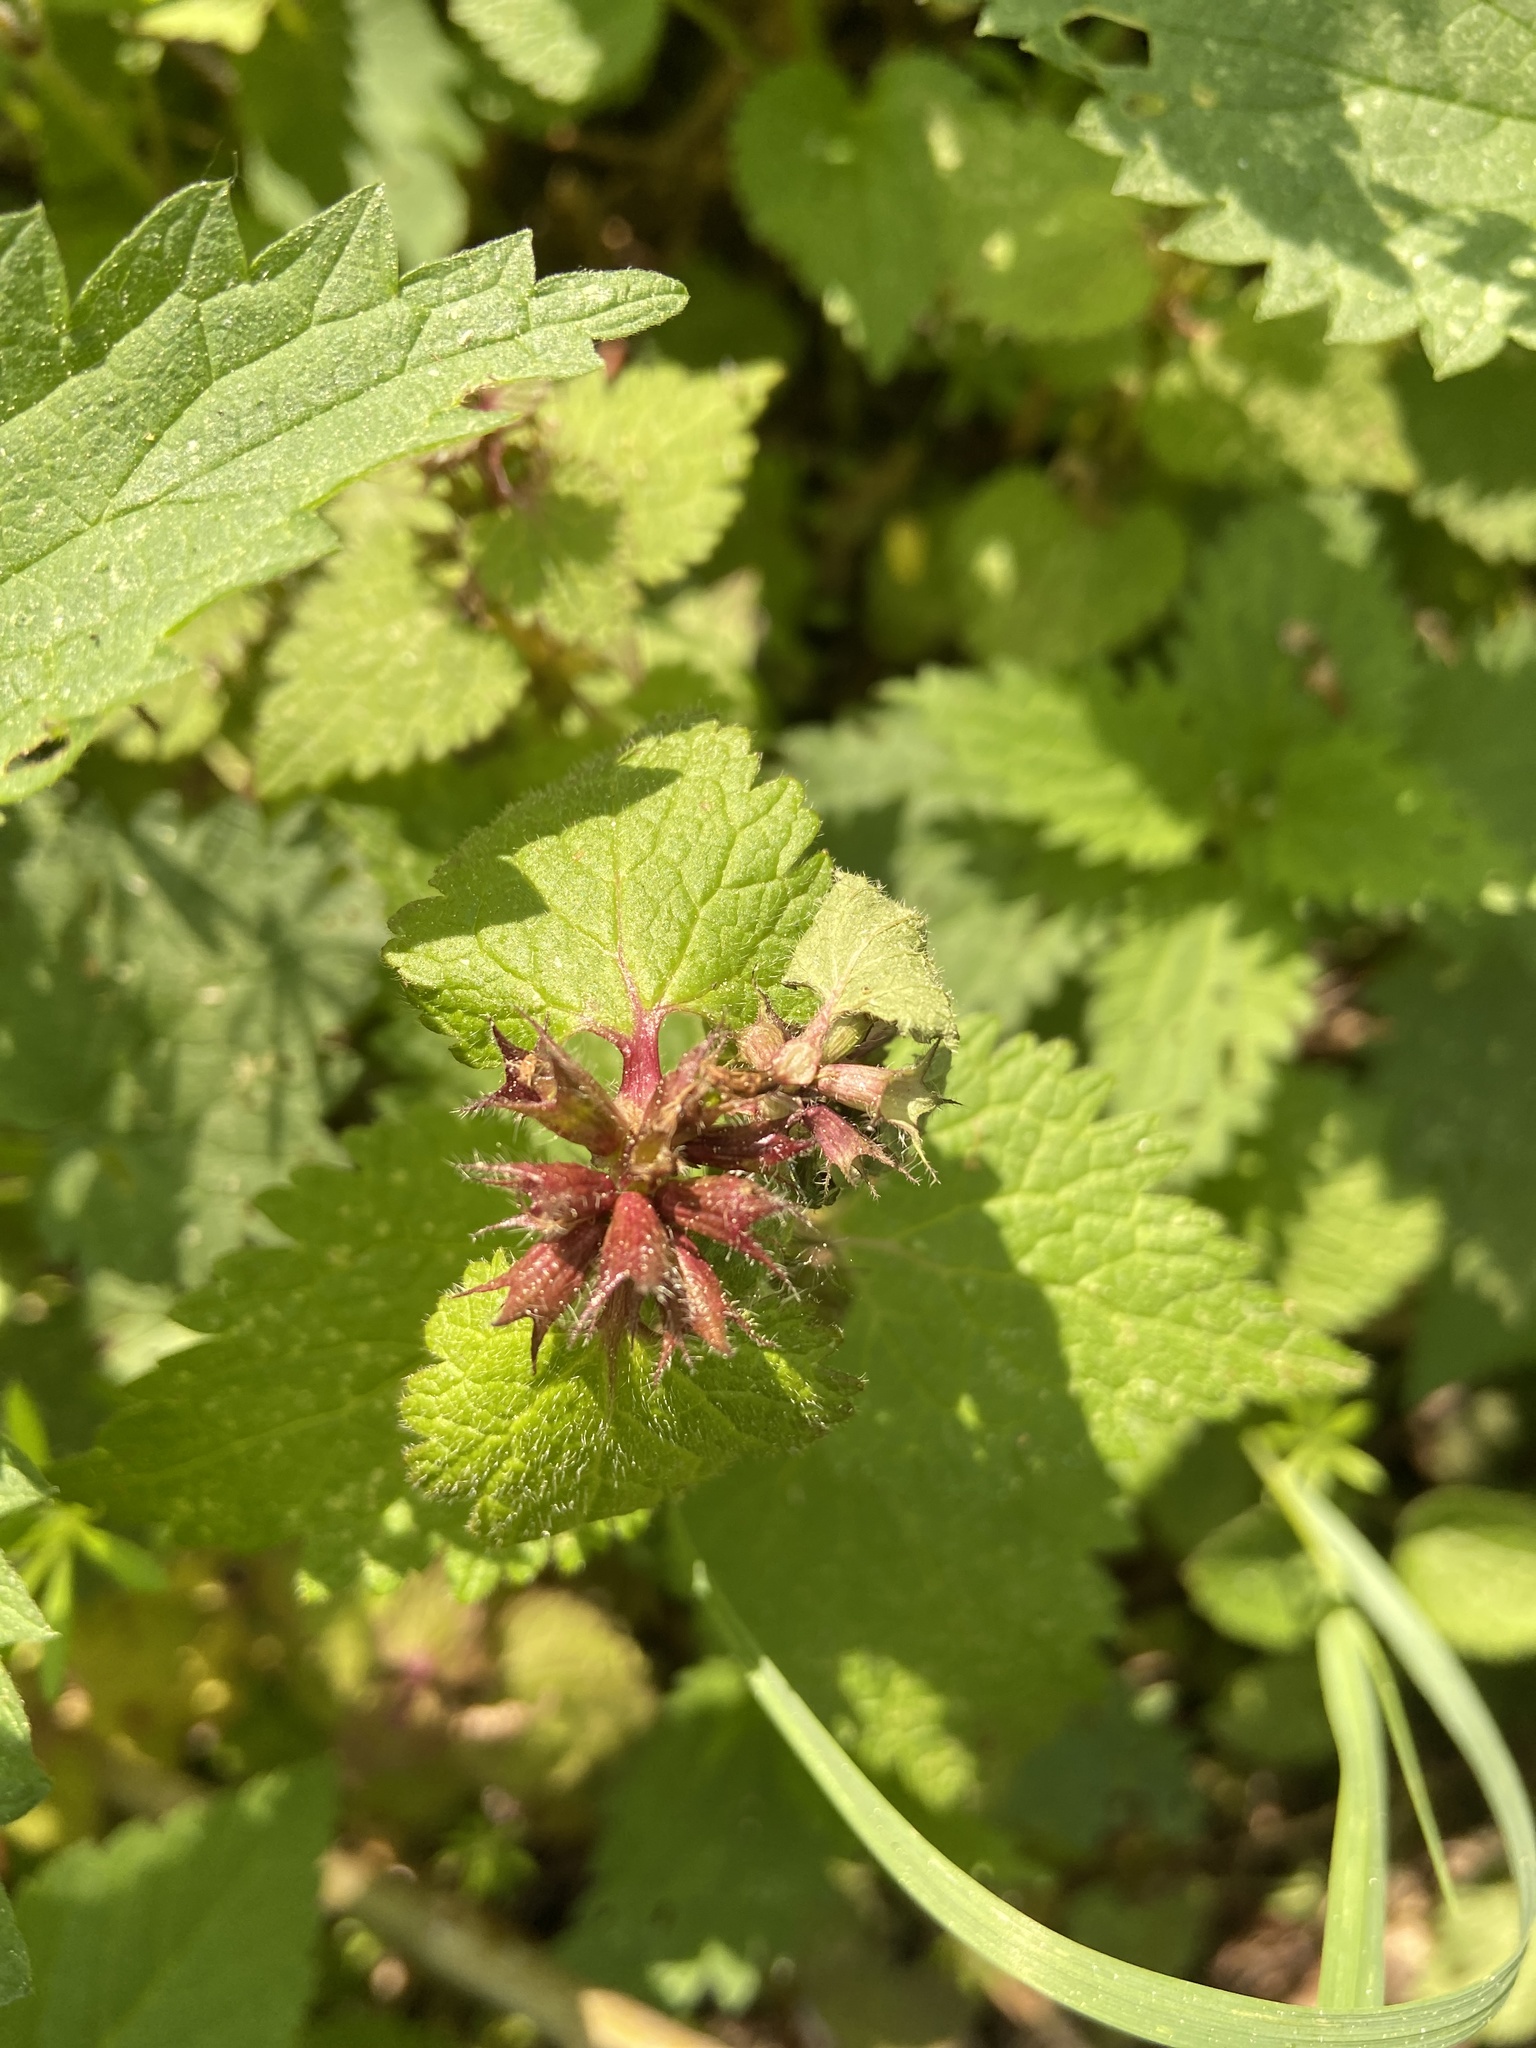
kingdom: Plantae
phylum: Tracheophyta
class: Magnoliopsida
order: Lamiales
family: Lamiaceae
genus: Lamium
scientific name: Lamium purpureum
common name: Red dead-nettle
